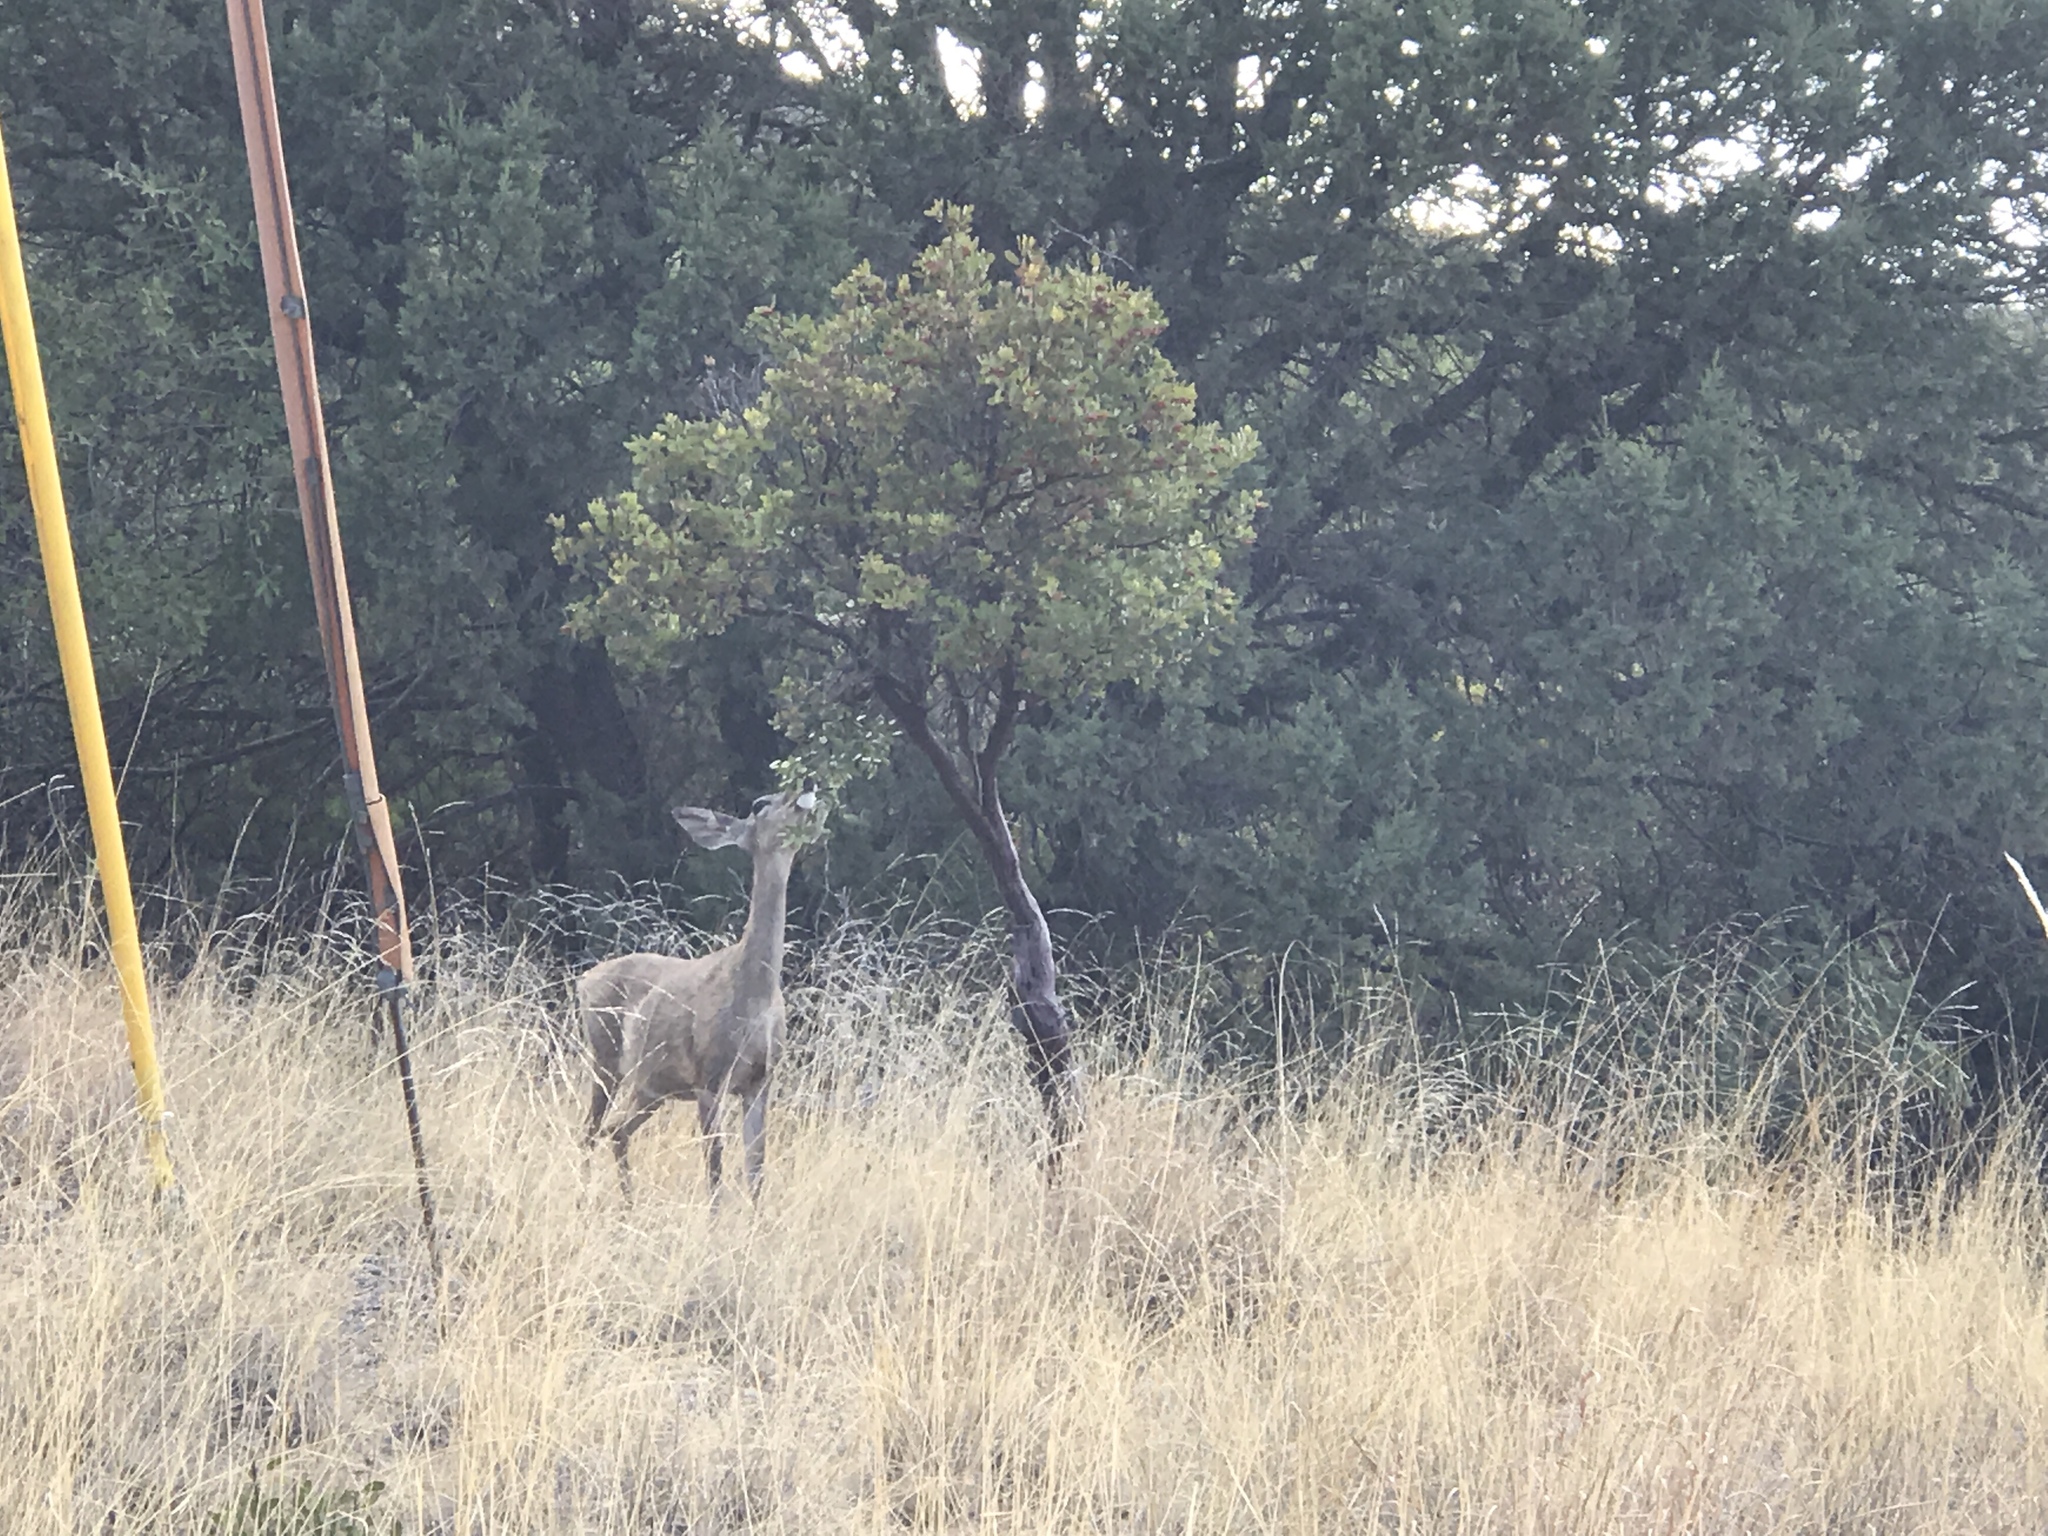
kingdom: Animalia
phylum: Chordata
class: Mammalia
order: Artiodactyla
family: Cervidae
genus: Odocoileus
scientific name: Odocoileus virginianus
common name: White-tailed deer
